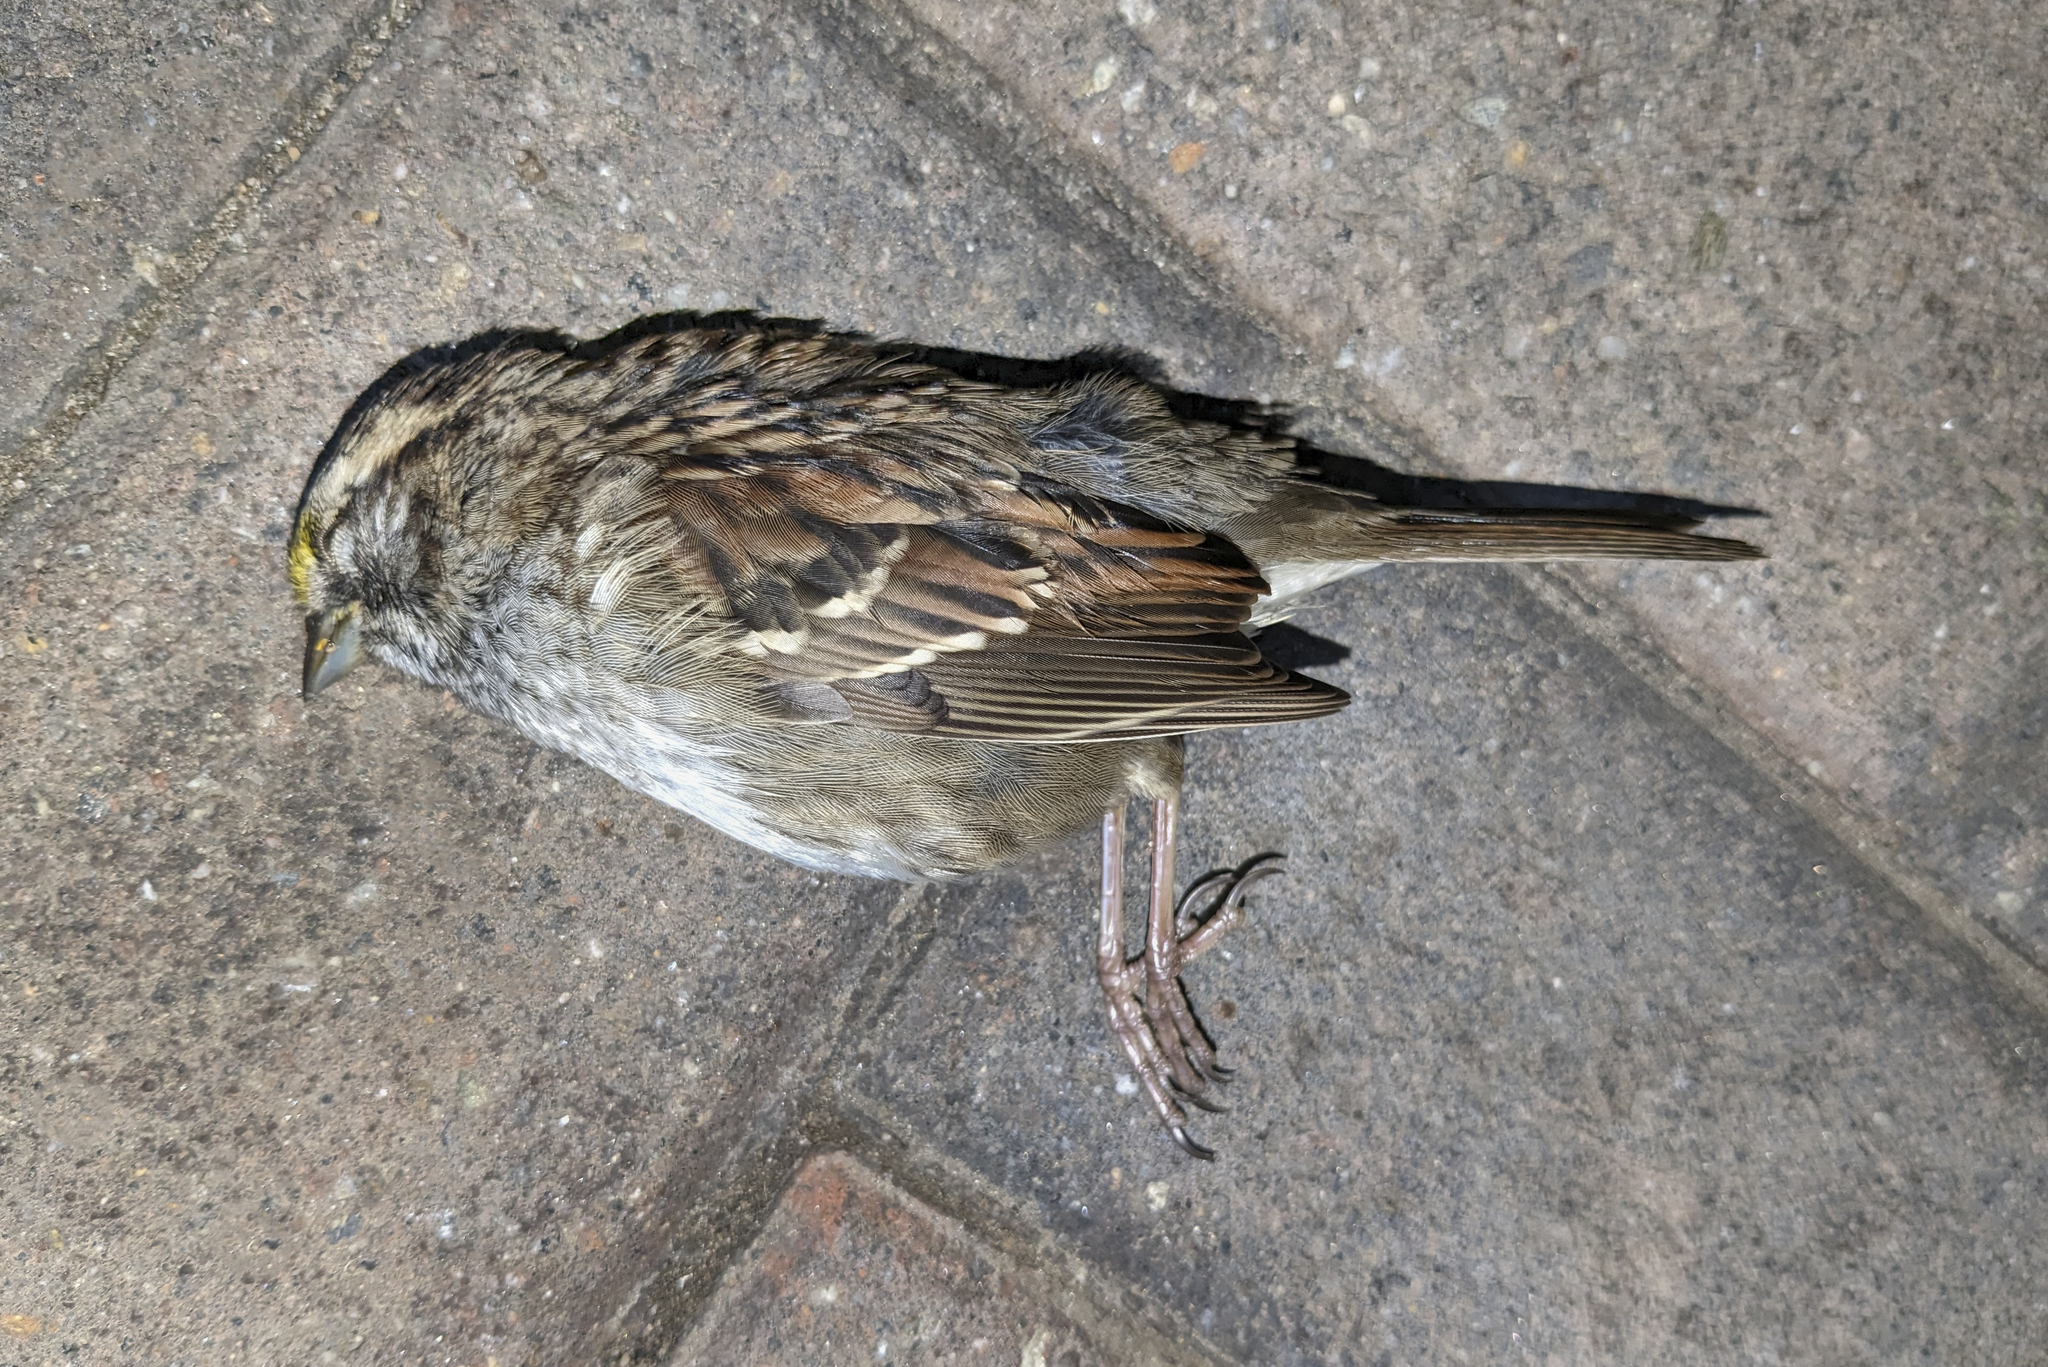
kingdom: Animalia
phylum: Chordata
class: Aves
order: Passeriformes
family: Passerellidae
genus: Zonotrichia
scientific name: Zonotrichia albicollis
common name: White-throated sparrow
